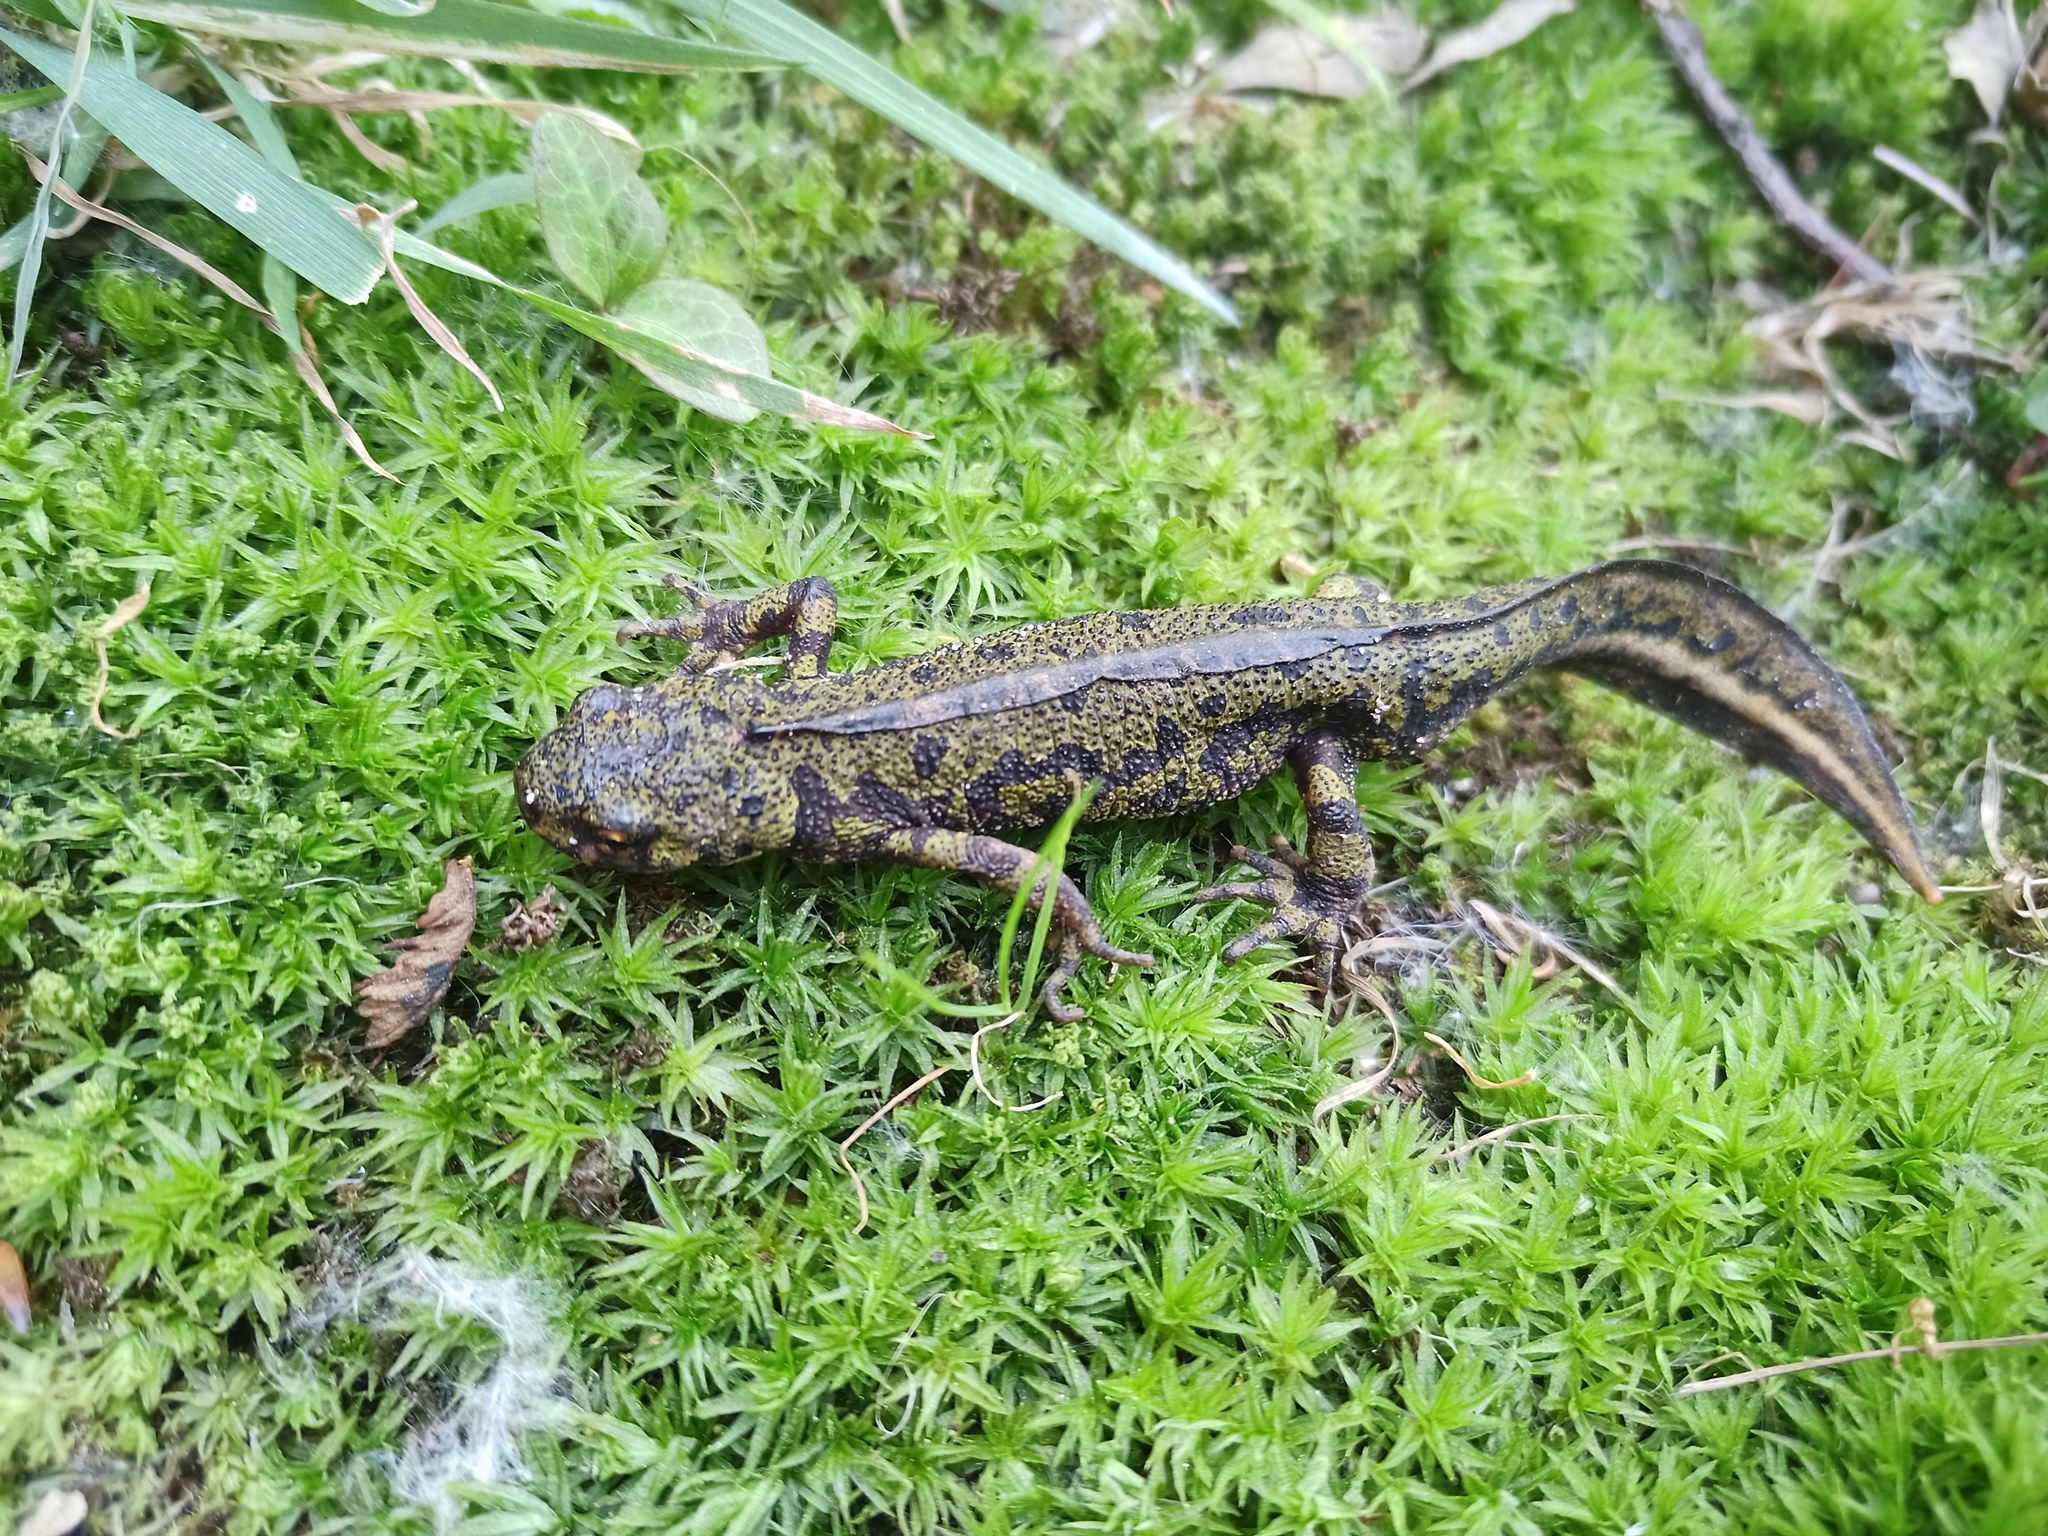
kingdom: Animalia
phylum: Chordata
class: Amphibia
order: Caudata
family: Salamandridae
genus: Triturus
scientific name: Triturus marmoratus
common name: Marbled newt
